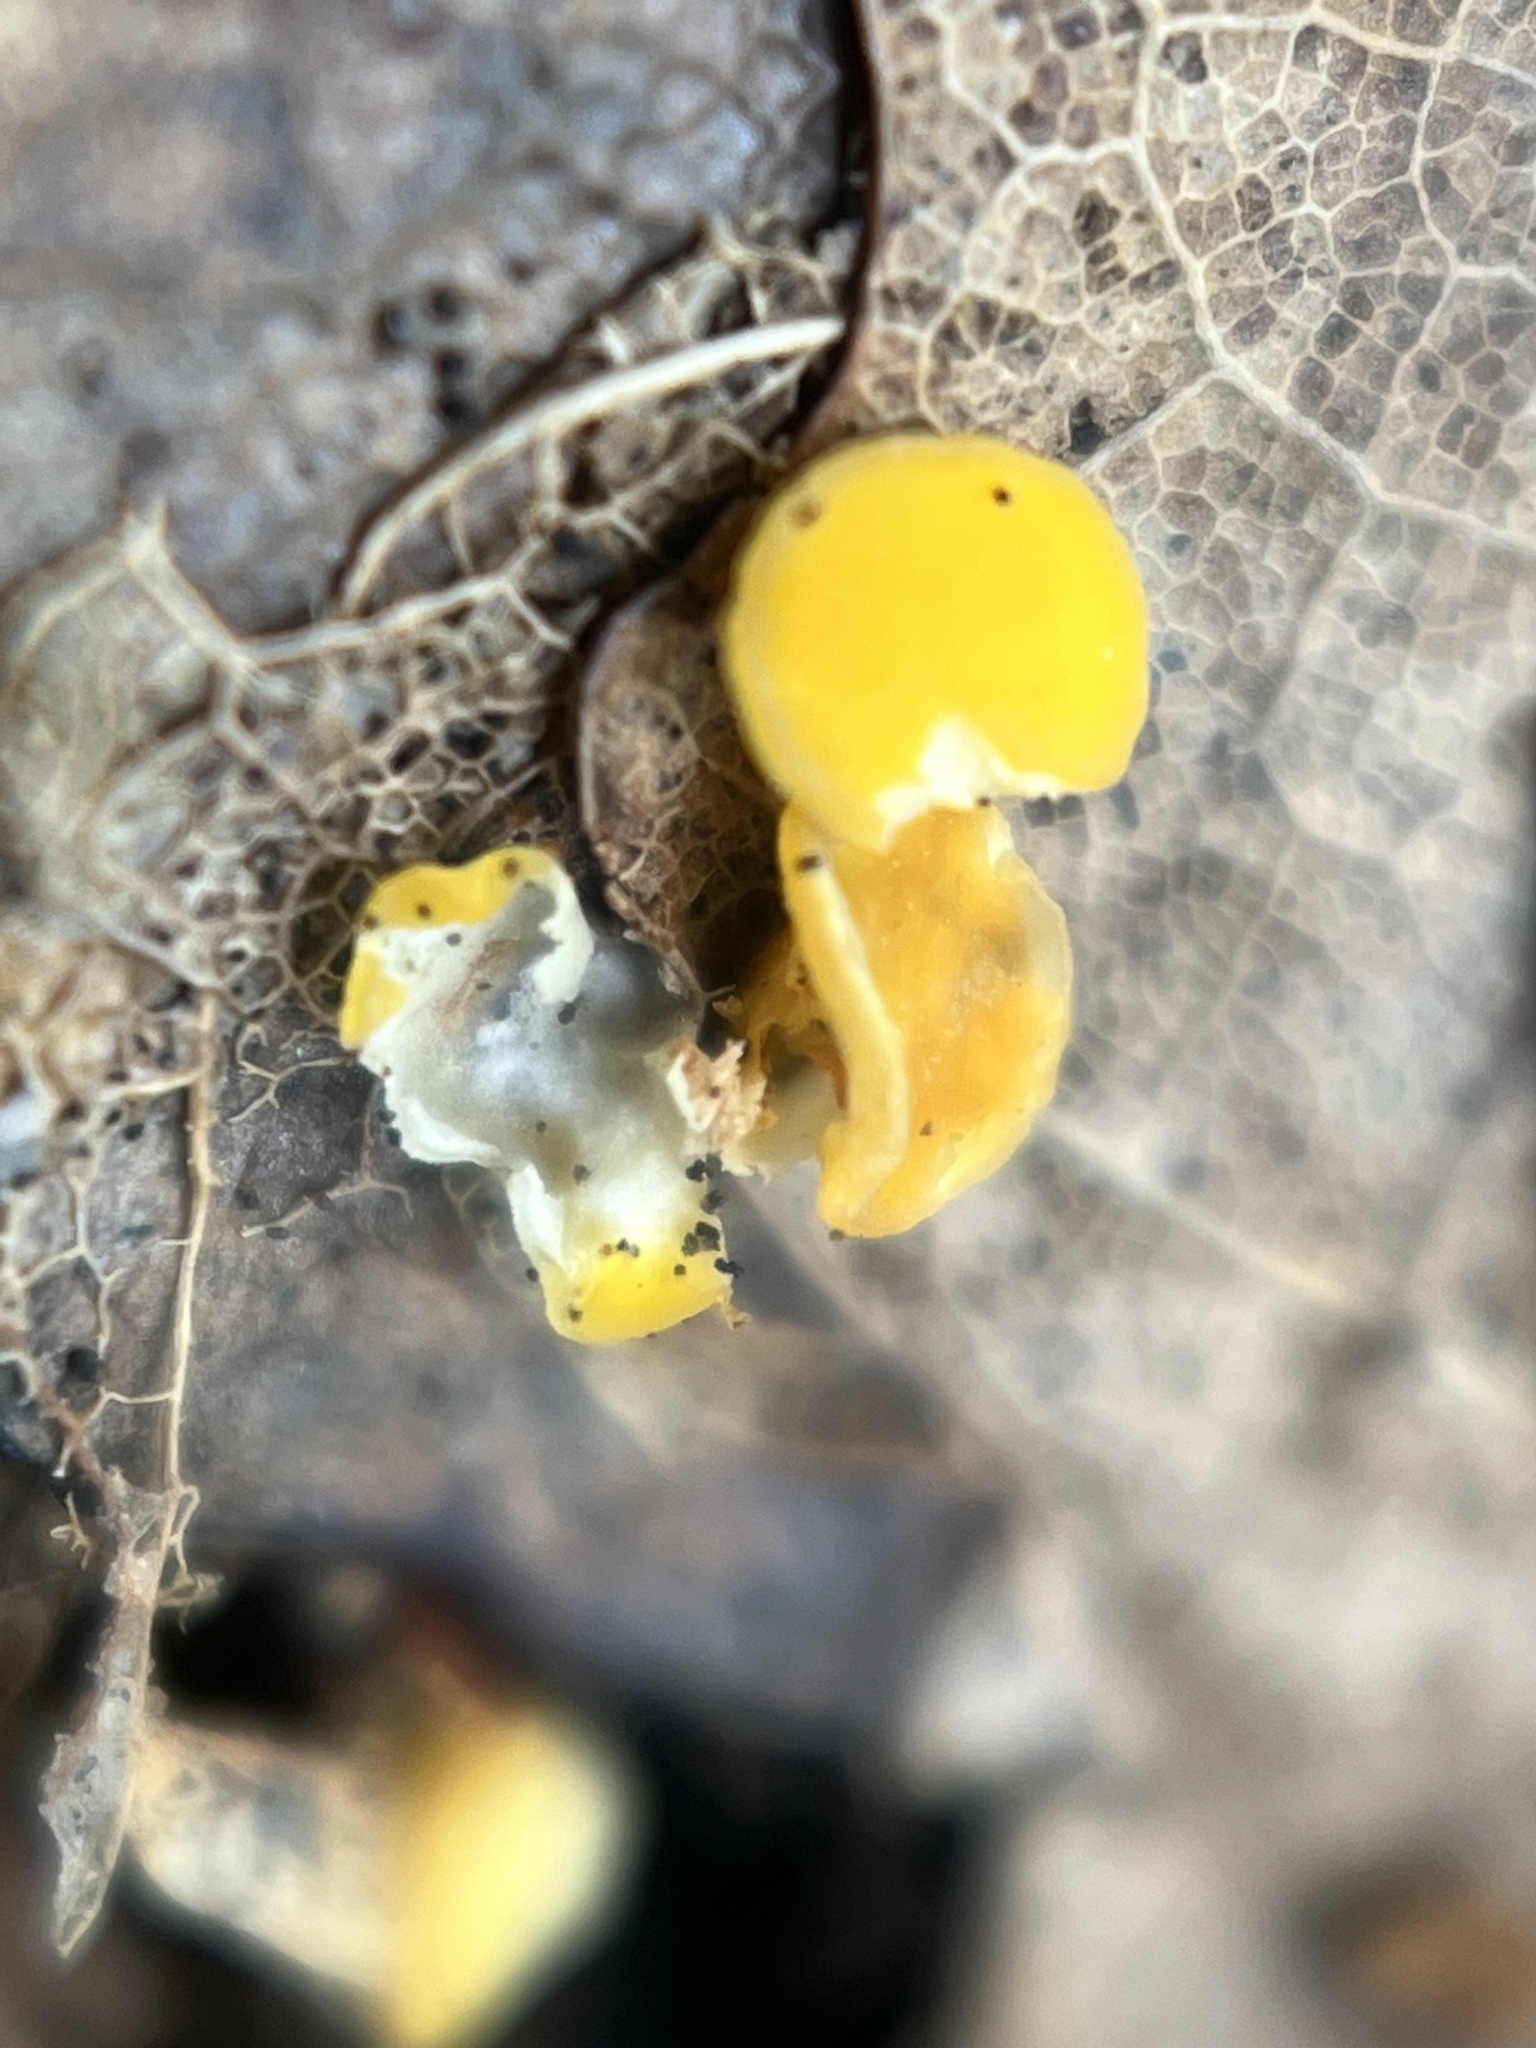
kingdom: Fungi
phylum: Ascomycota
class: Leotiomycetes
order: Helotiales
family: Helotiaceae
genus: Hymenoscyphus
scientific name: Hymenoscyphus epiphyllus
